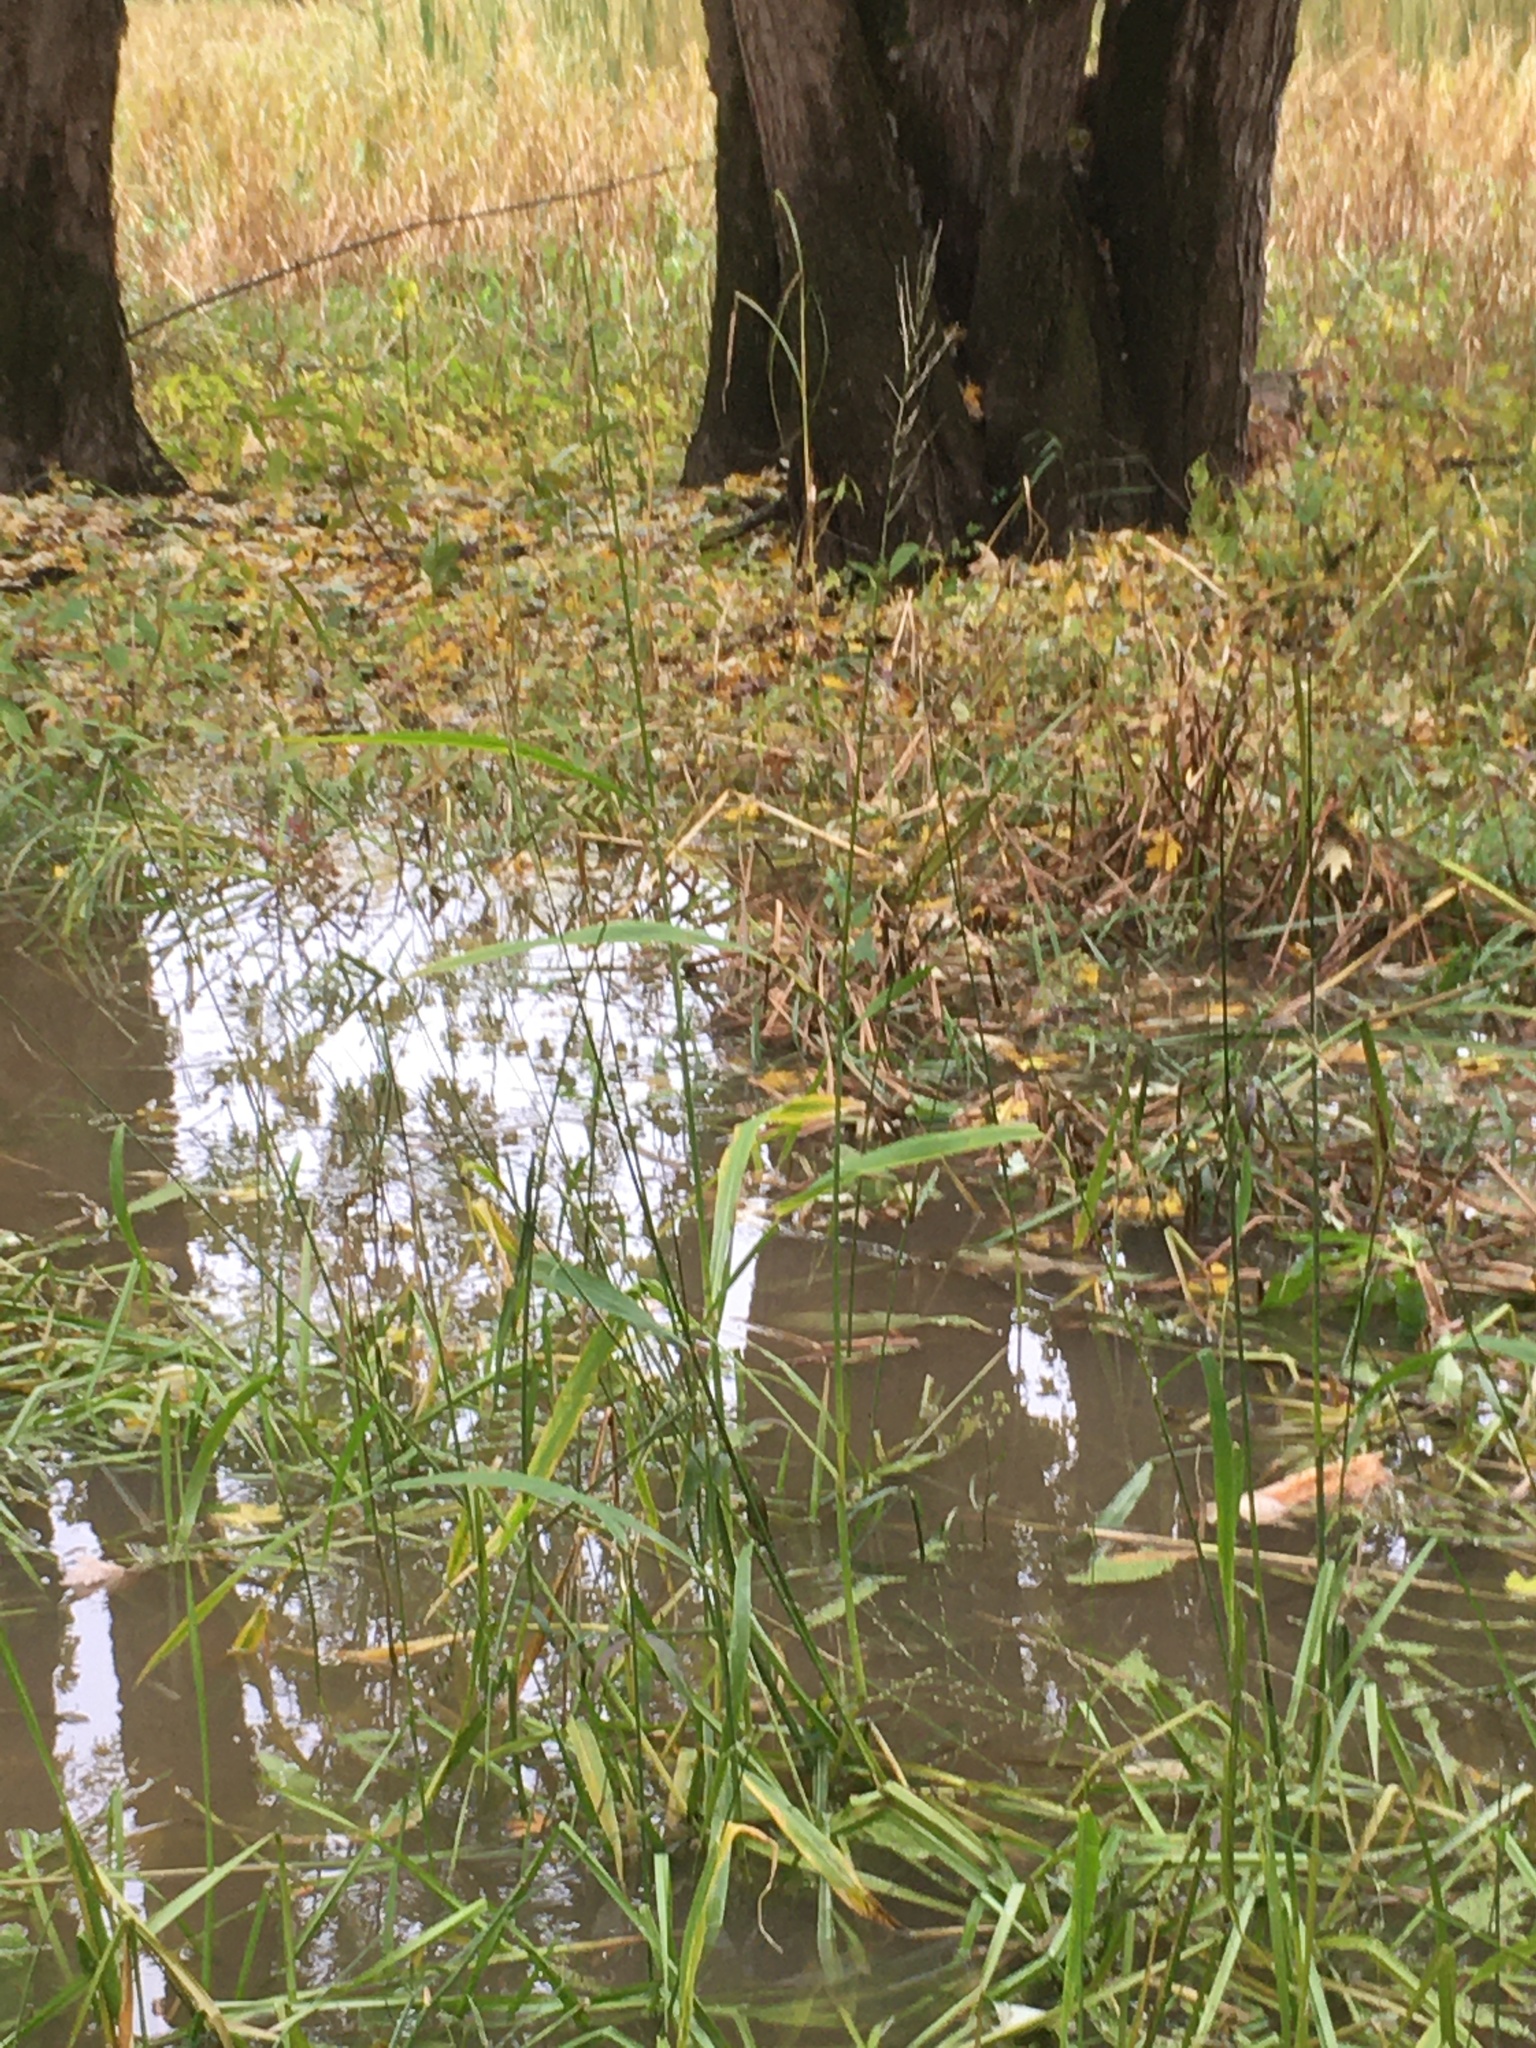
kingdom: Plantae
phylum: Tracheophyta
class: Liliopsida
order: Poales
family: Poaceae
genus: Zizania
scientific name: Zizania aquatica
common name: Annual wildrice
